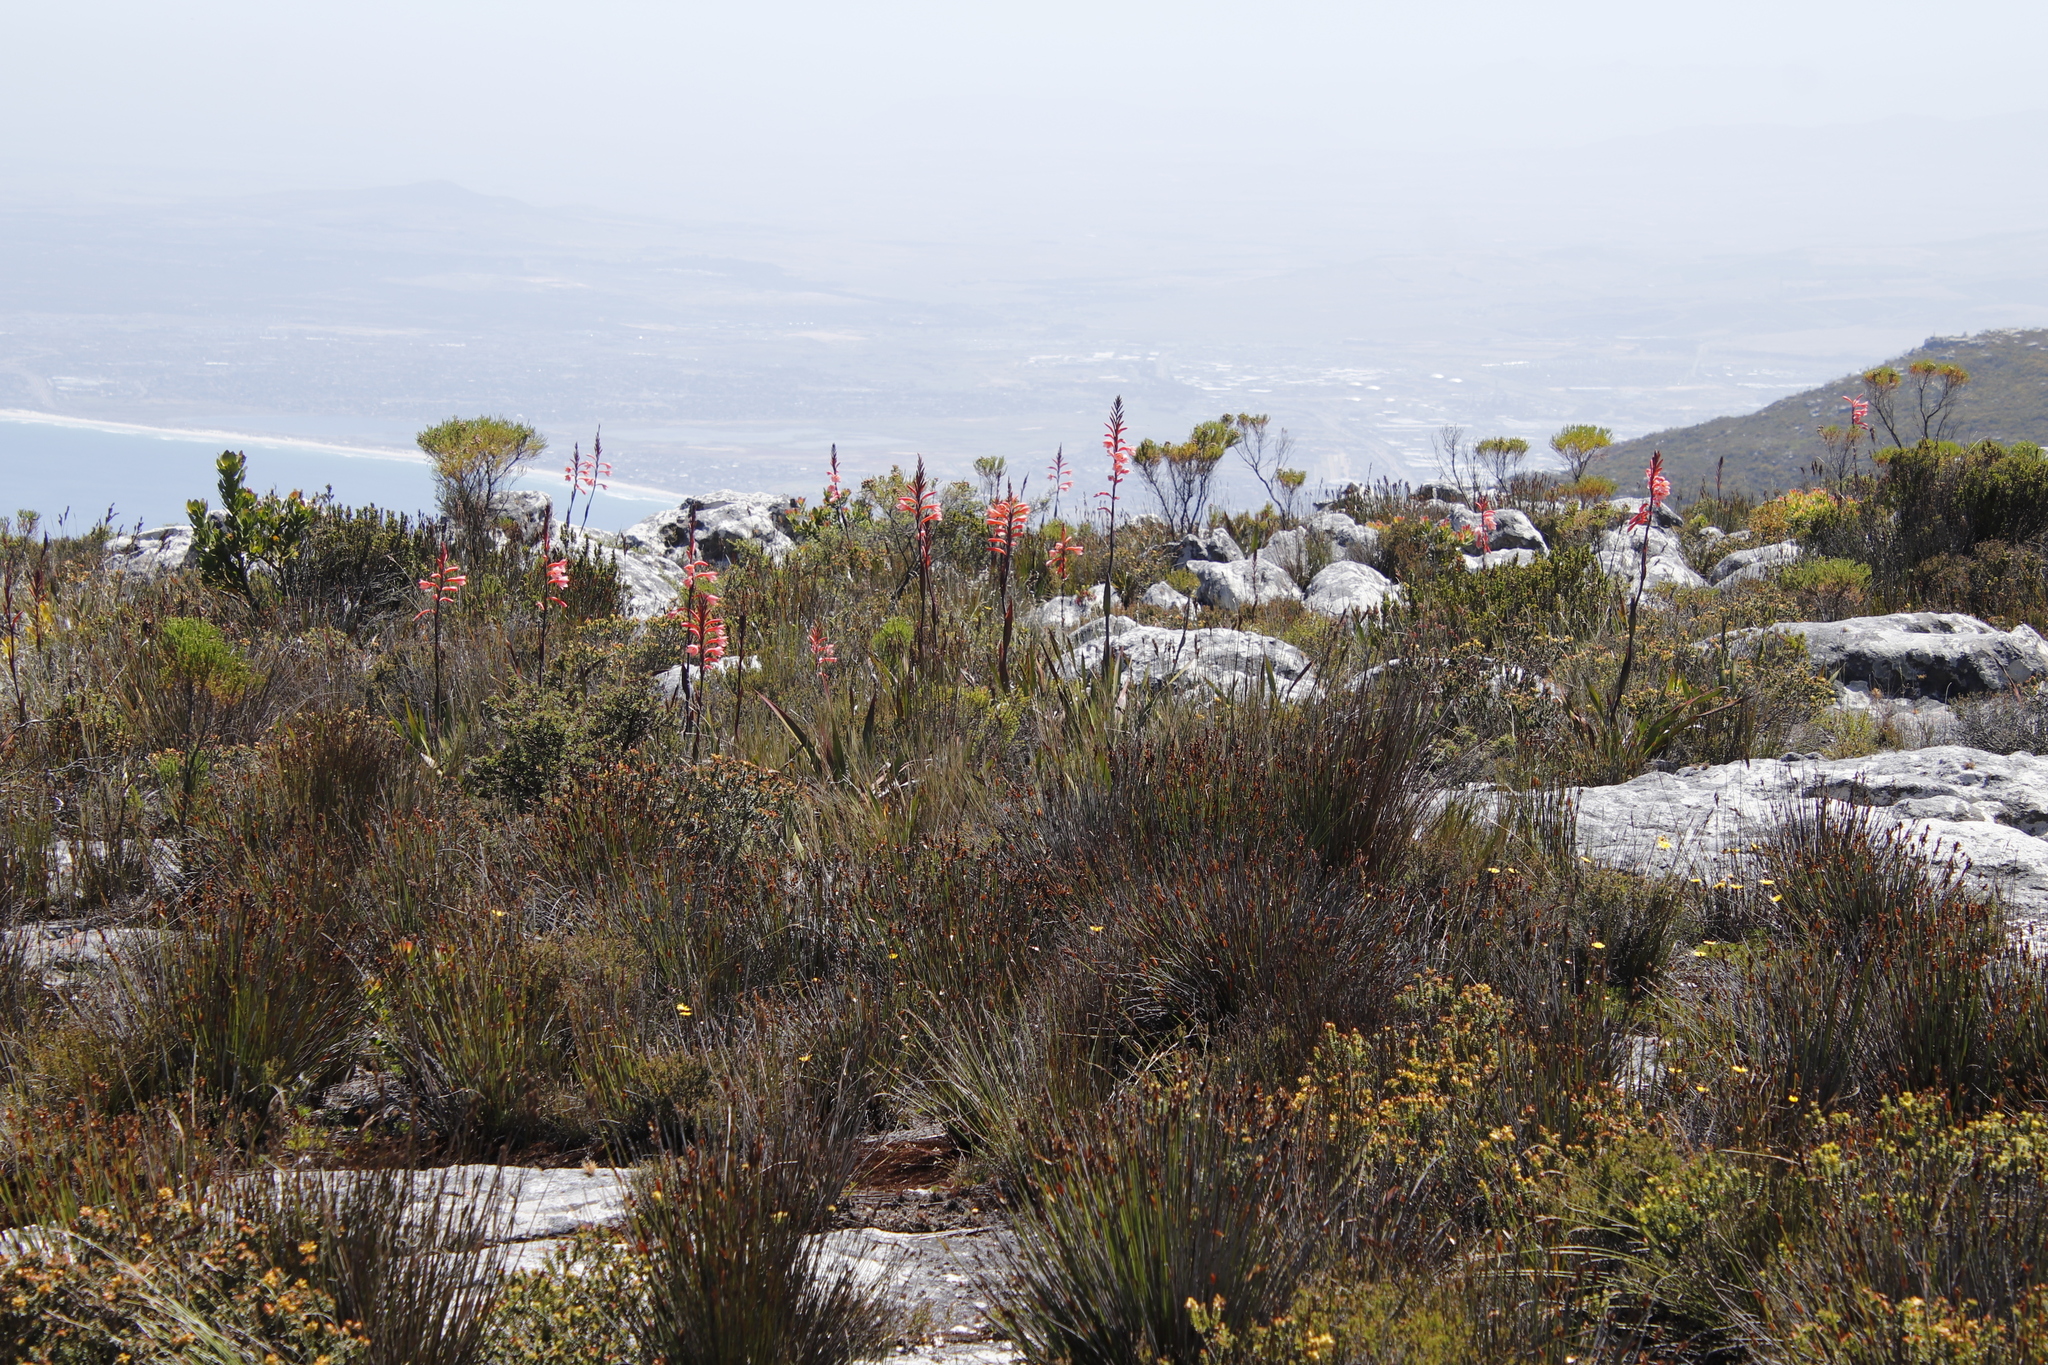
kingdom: Plantae
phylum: Tracheophyta
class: Liliopsida
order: Asparagales
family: Iridaceae
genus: Watsonia
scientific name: Watsonia tabularis
